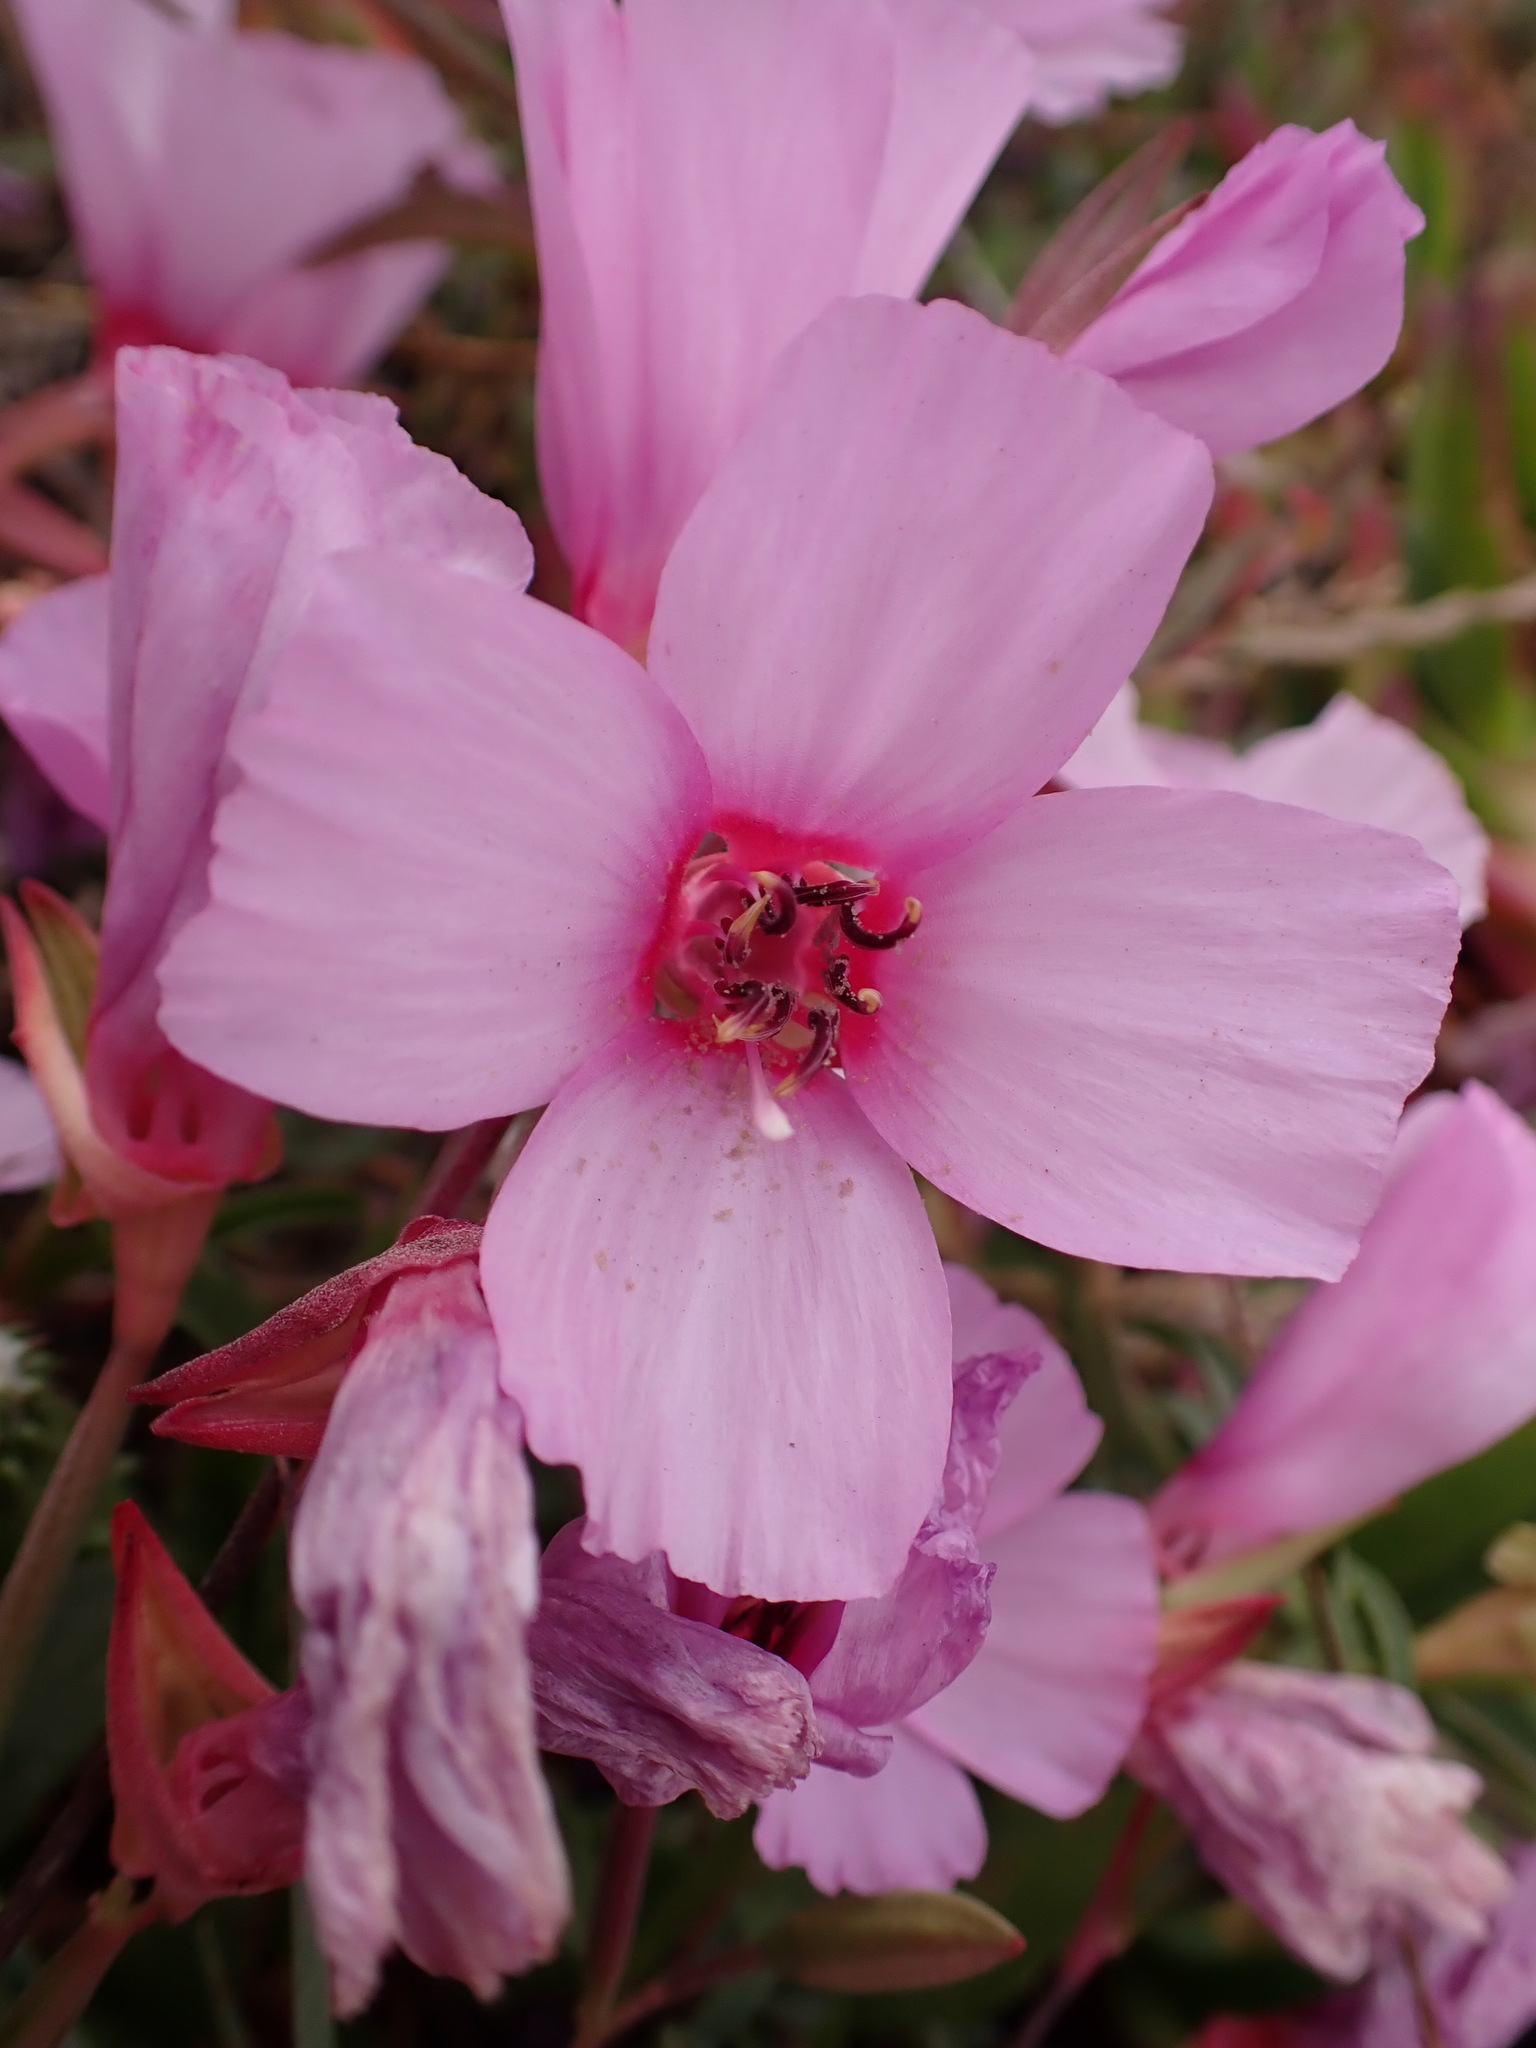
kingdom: Plantae
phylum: Tracheophyta
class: Magnoliopsida
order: Myrtales
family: Onagraceae
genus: Clarkia
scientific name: Clarkia rubicunda
